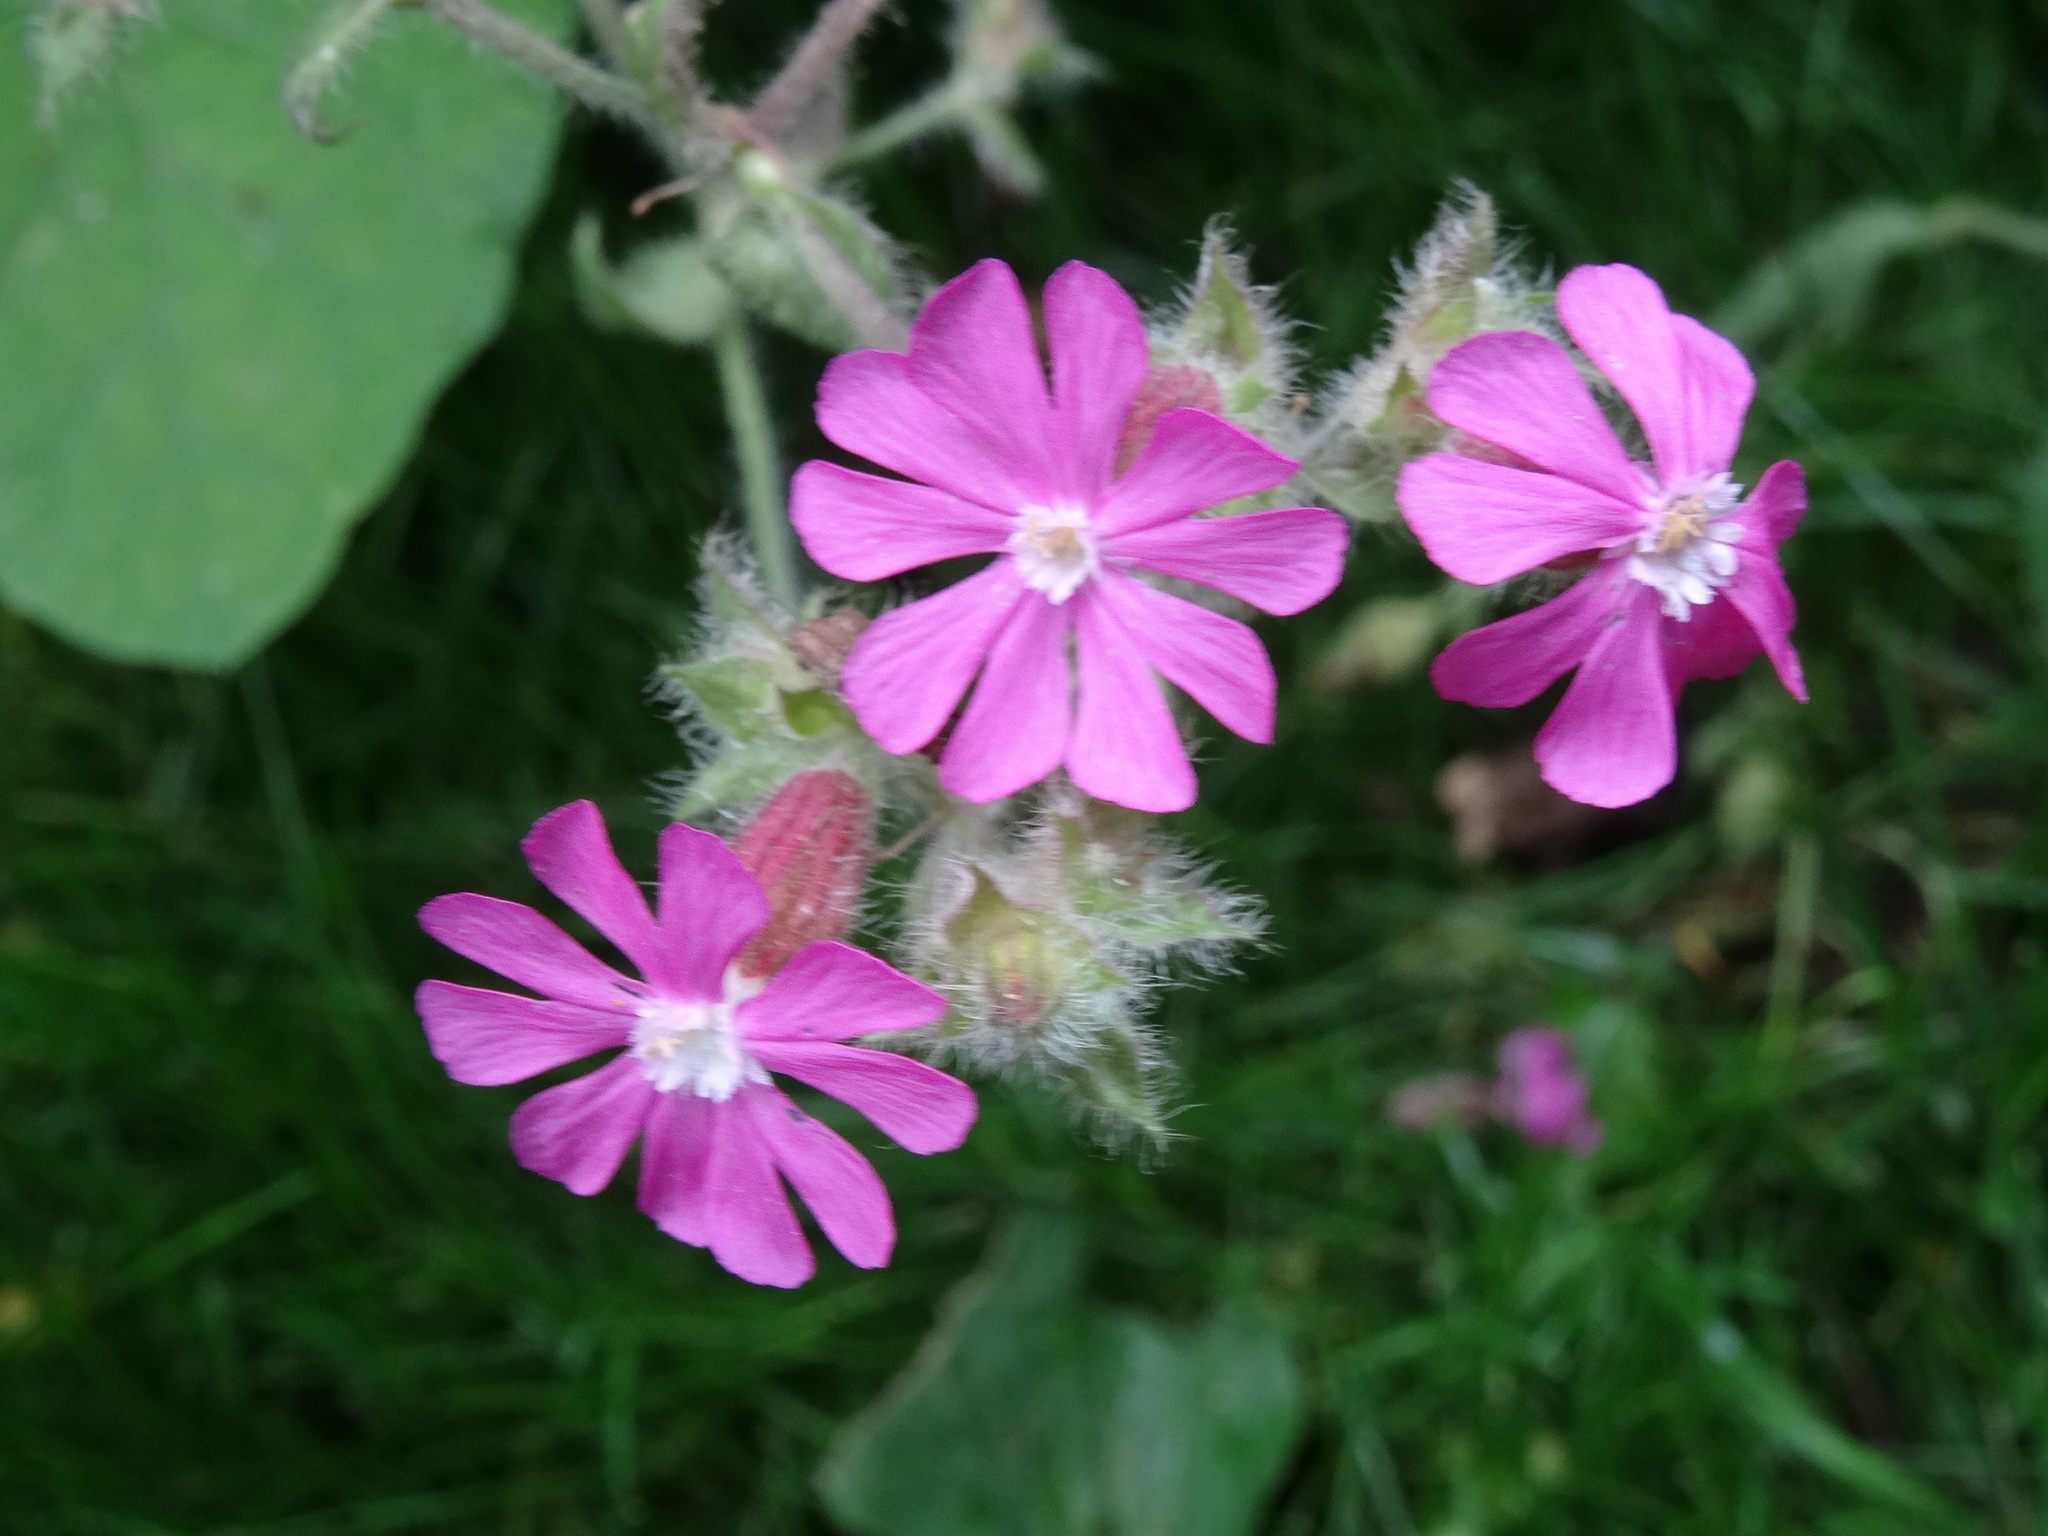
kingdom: Plantae
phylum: Tracheophyta
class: Magnoliopsida
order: Caryophyllales
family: Caryophyllaceae
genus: Silene
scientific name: Silene dioica
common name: Red campion
